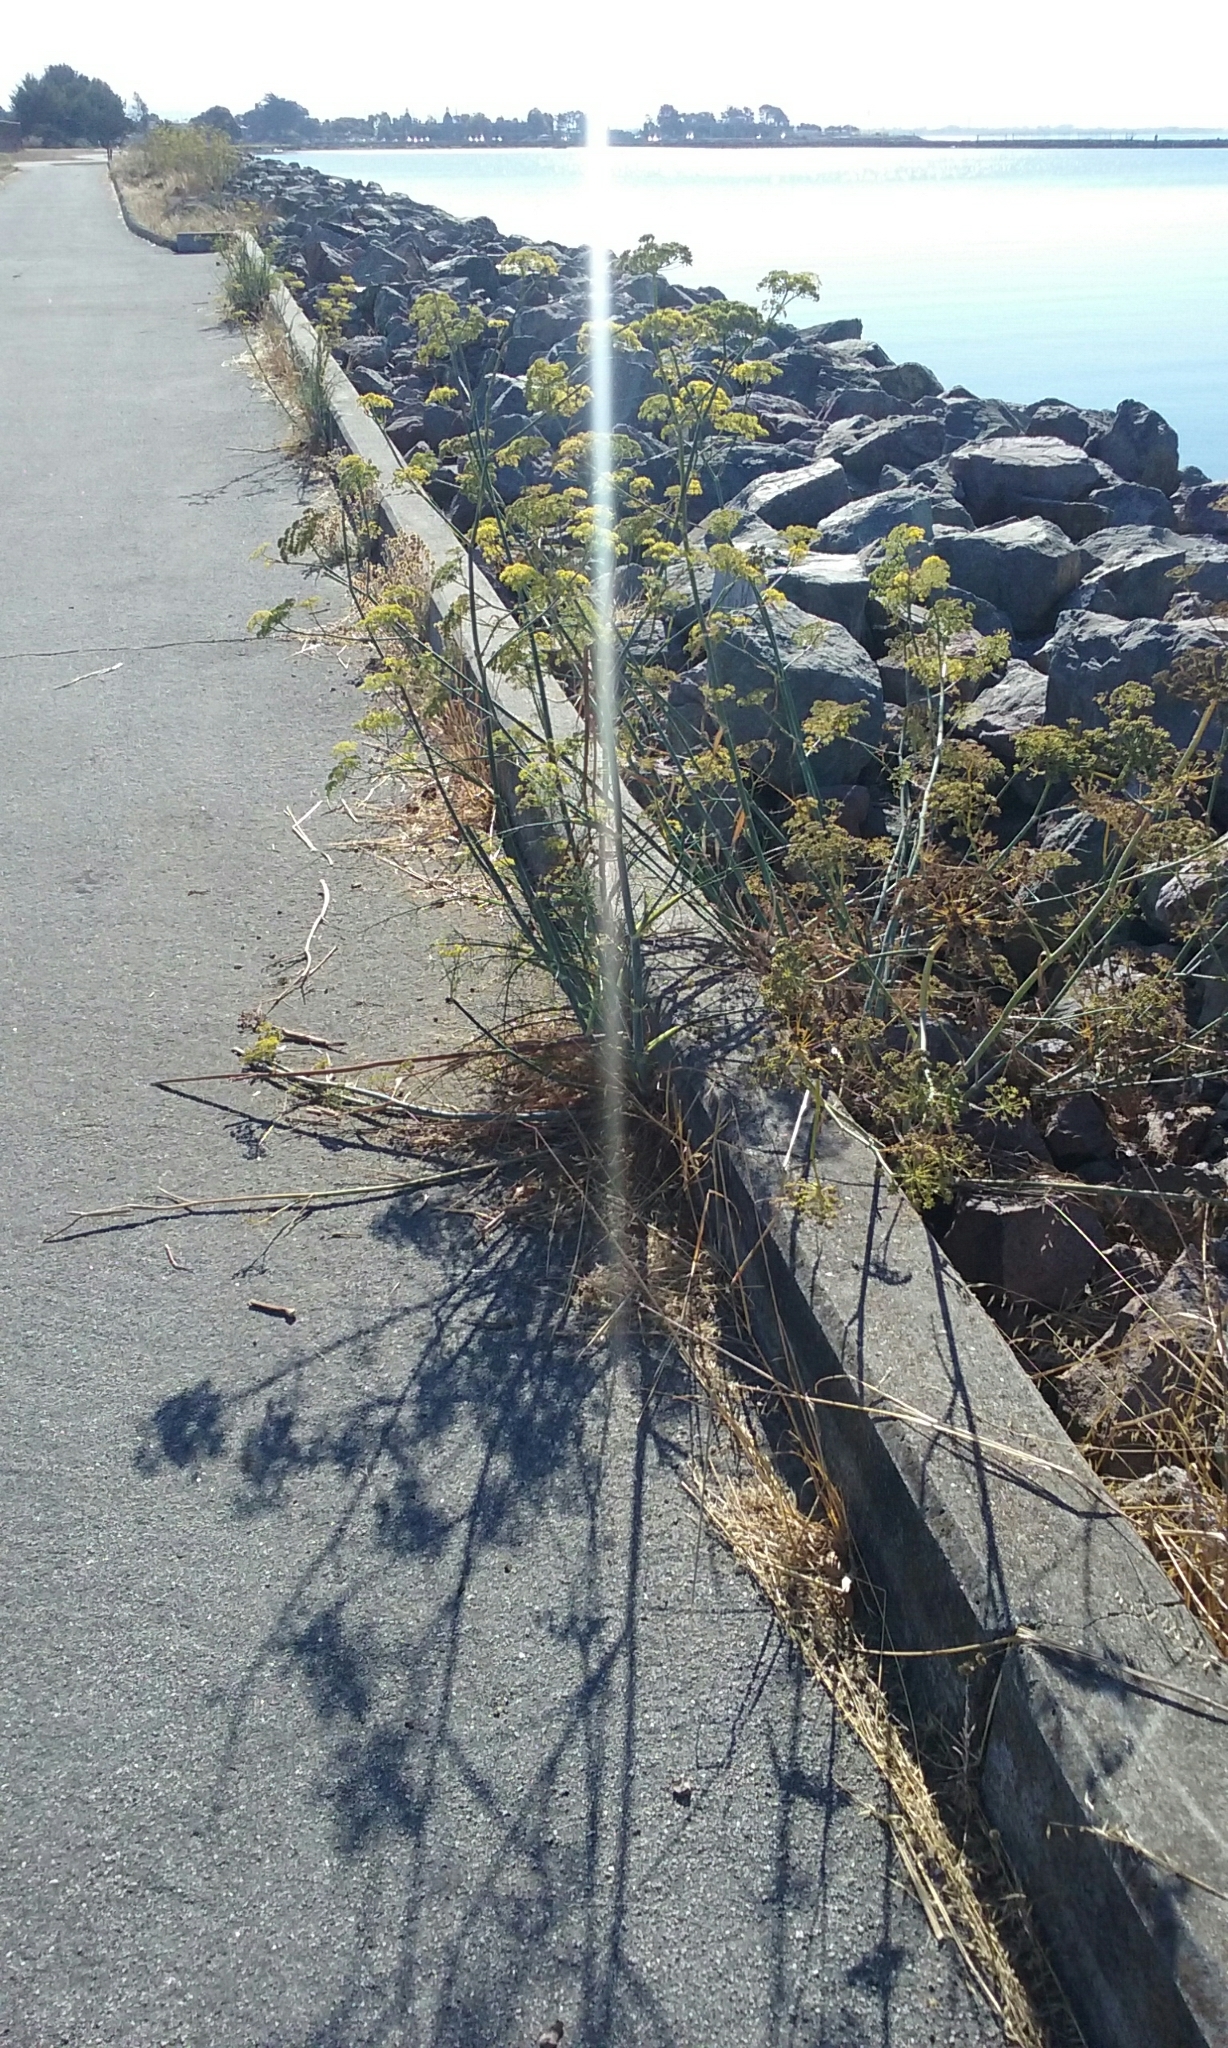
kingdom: Plantae
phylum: Tracheophyta
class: Magnoliopsida
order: Apiales
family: Apiaceae
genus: Foeniculum
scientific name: Foeniculum vulgare
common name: Fennel
